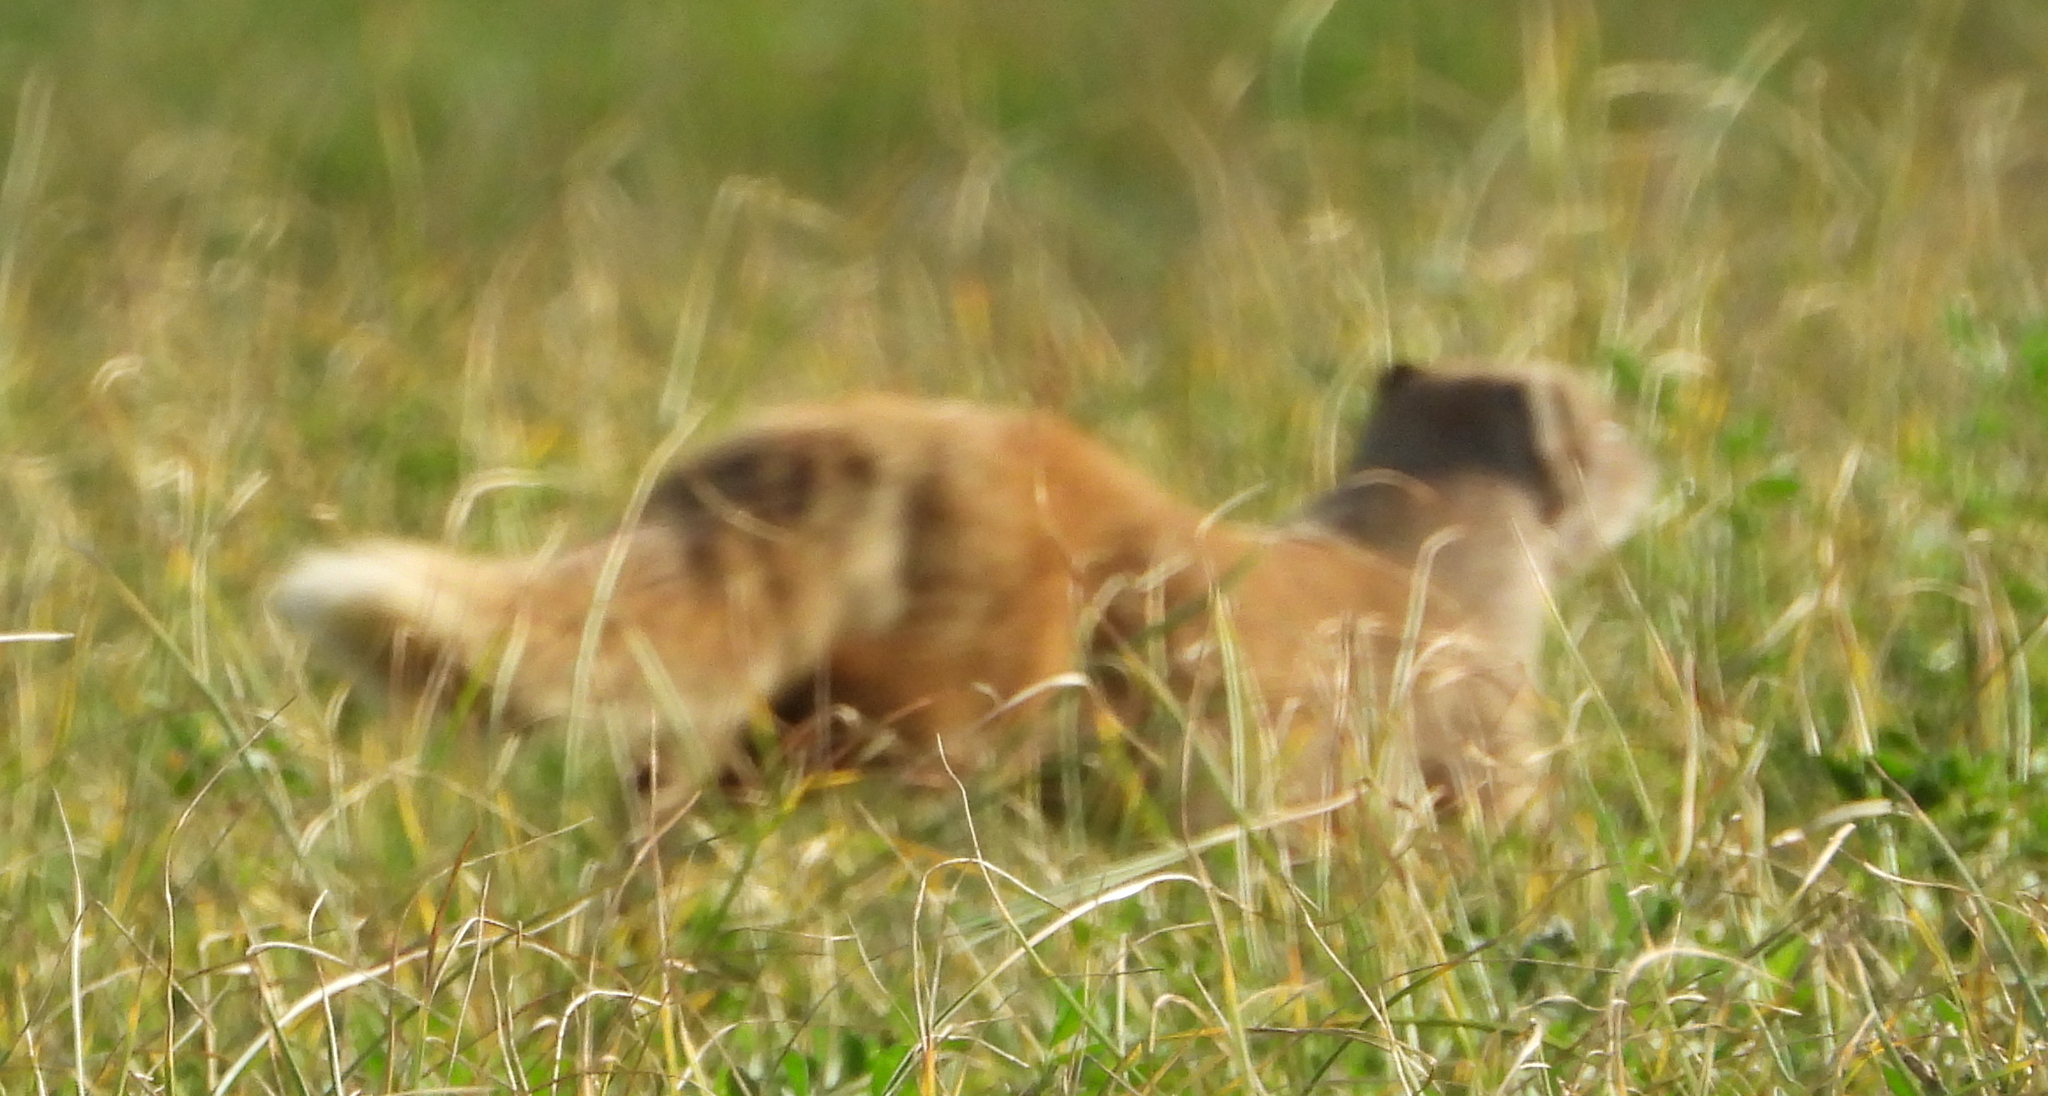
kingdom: Animalia
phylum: Chordata
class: Mammalia
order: Carnivora
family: Herpestidae
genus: Cynictis
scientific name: Cynictis penicillata
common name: Yellow mongoose
